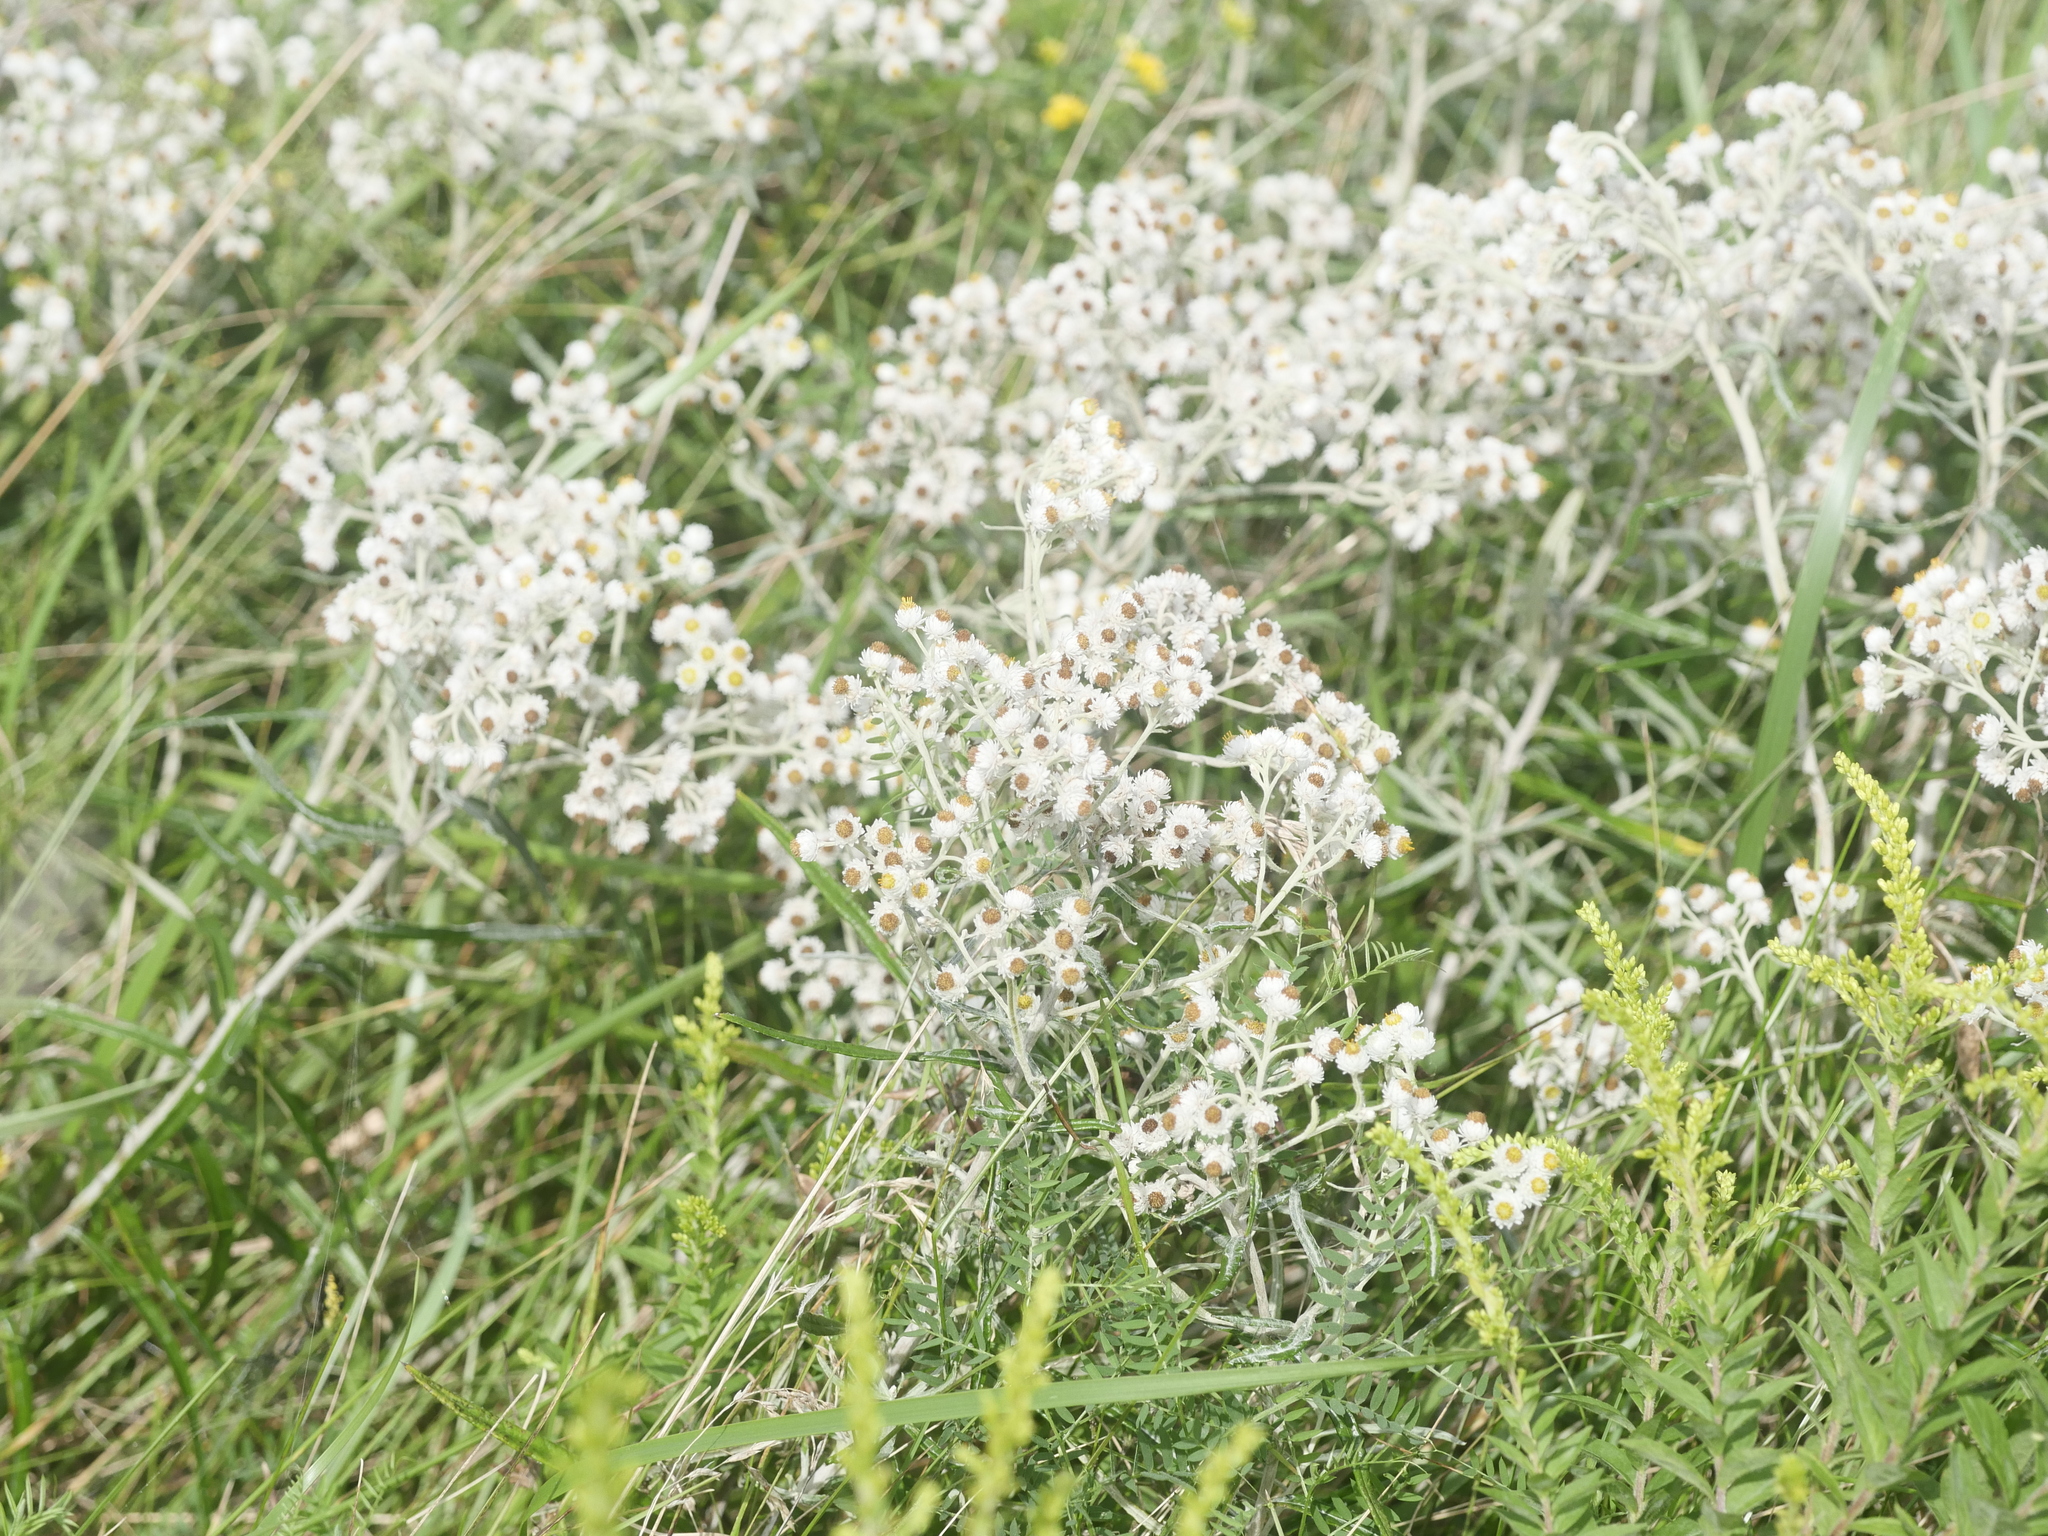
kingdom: Plantae
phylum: Tracheophyta
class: Magnoliopsida
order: Asterales
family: Asteraceae
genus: Anaphalis
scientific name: Anaphalis margaritacea
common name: Pearly everlasting
